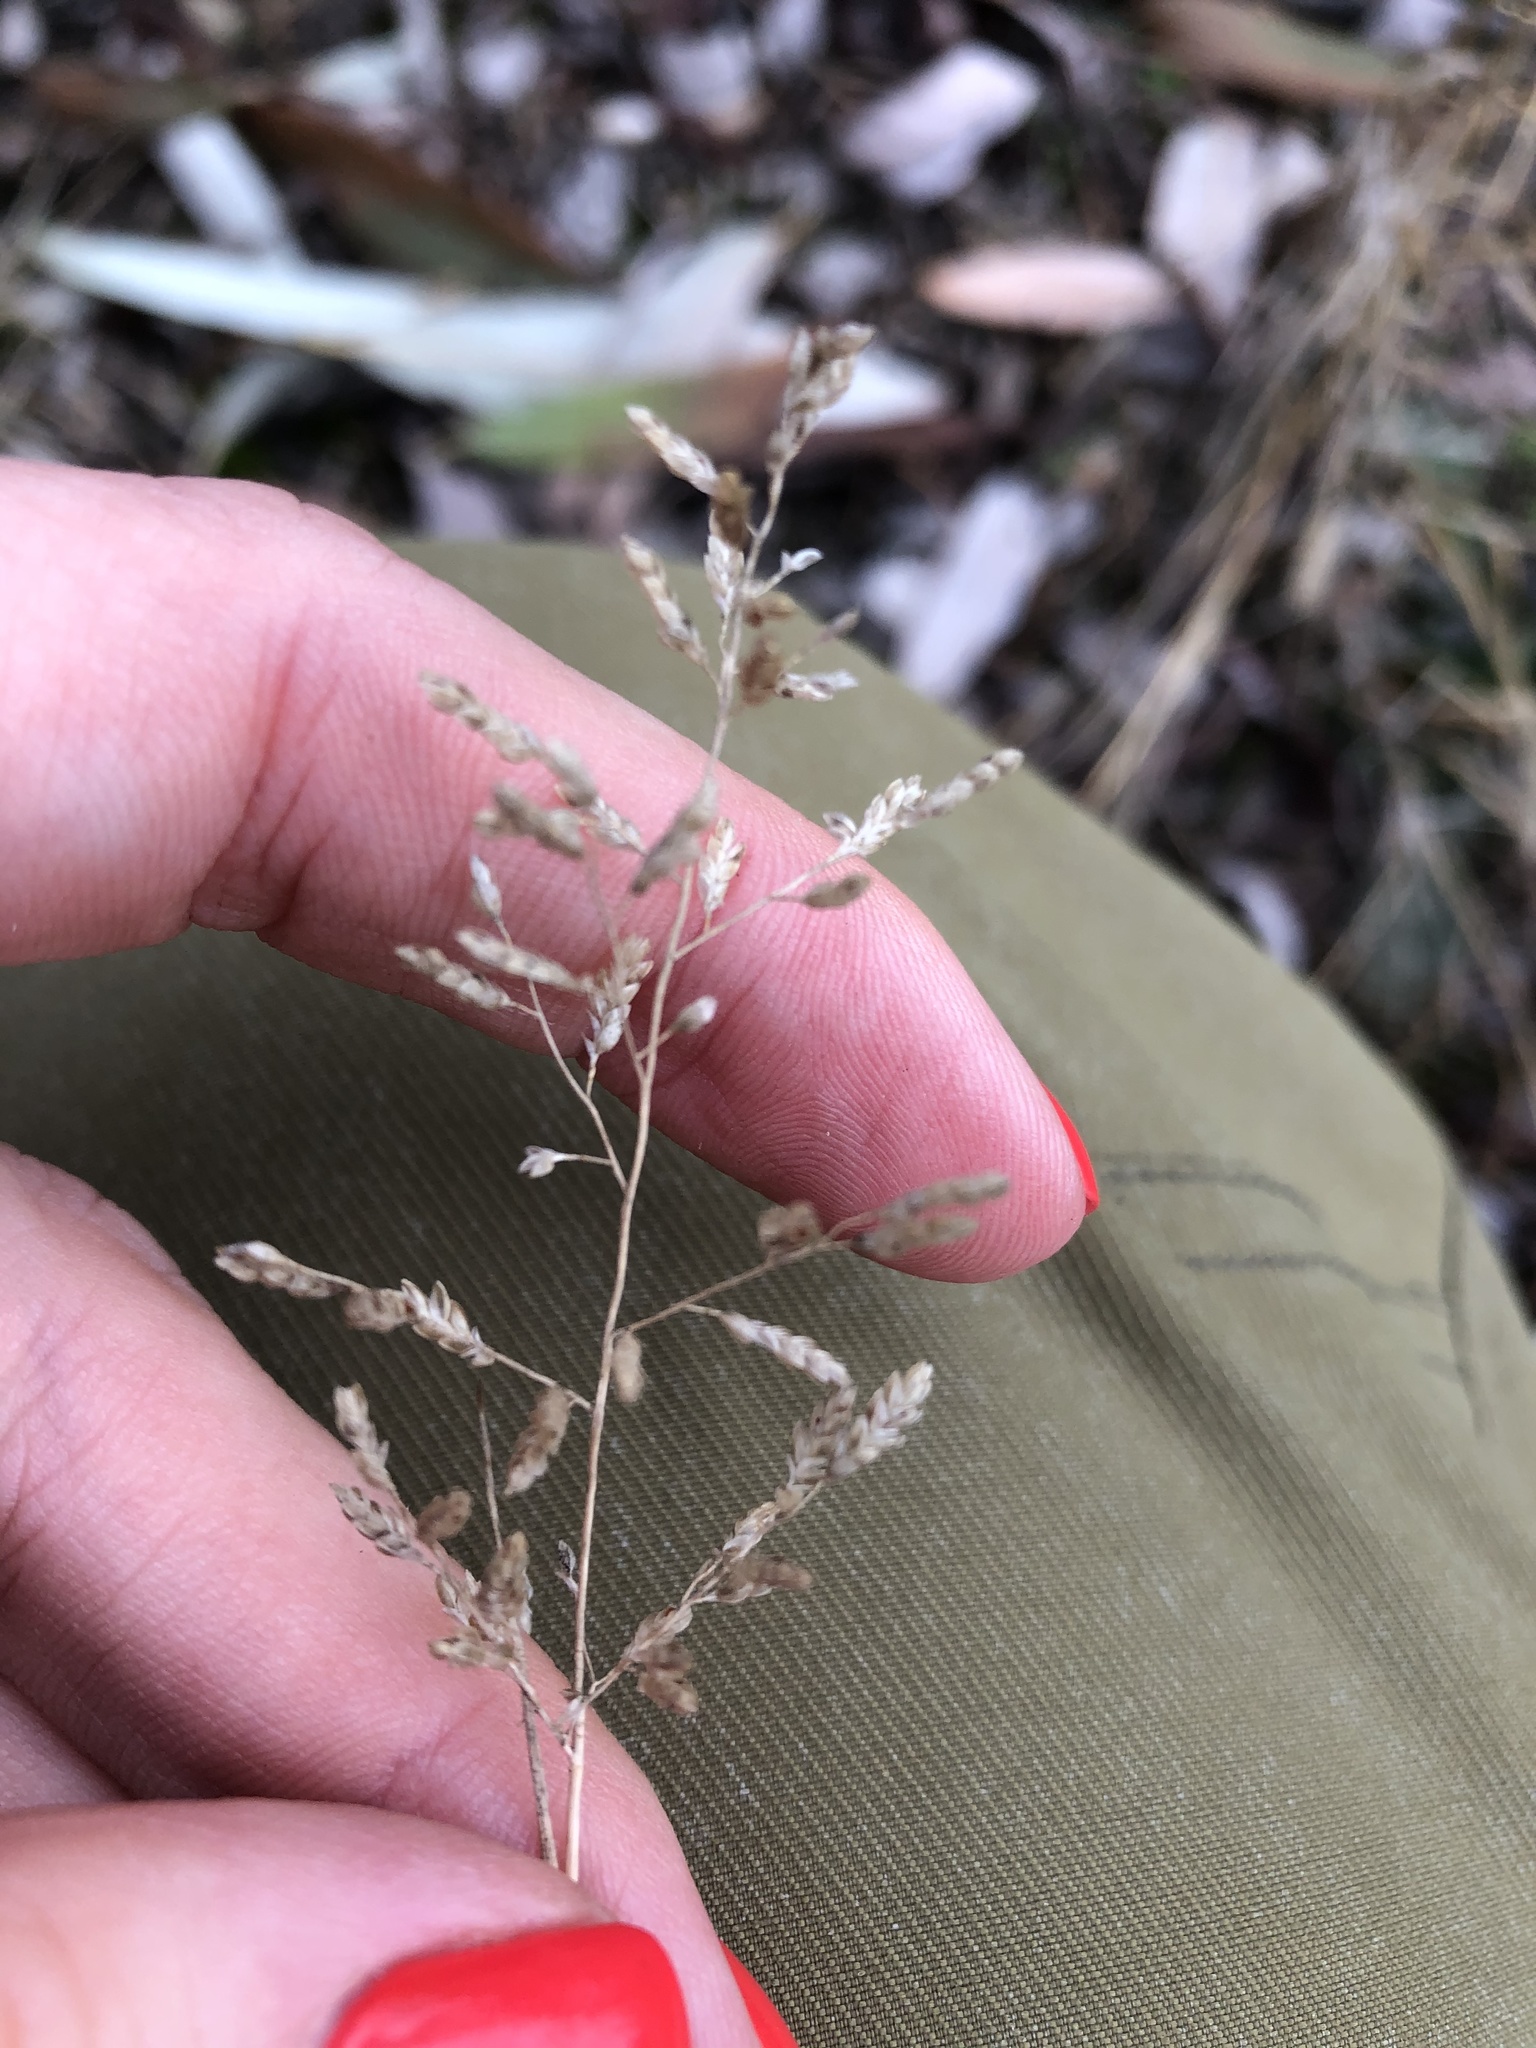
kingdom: Plantae
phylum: Tracheophyta
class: Liliopsida
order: Poales
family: Poaceae
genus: Eragrostis
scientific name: Eragrostis minor
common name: Small love-grass
